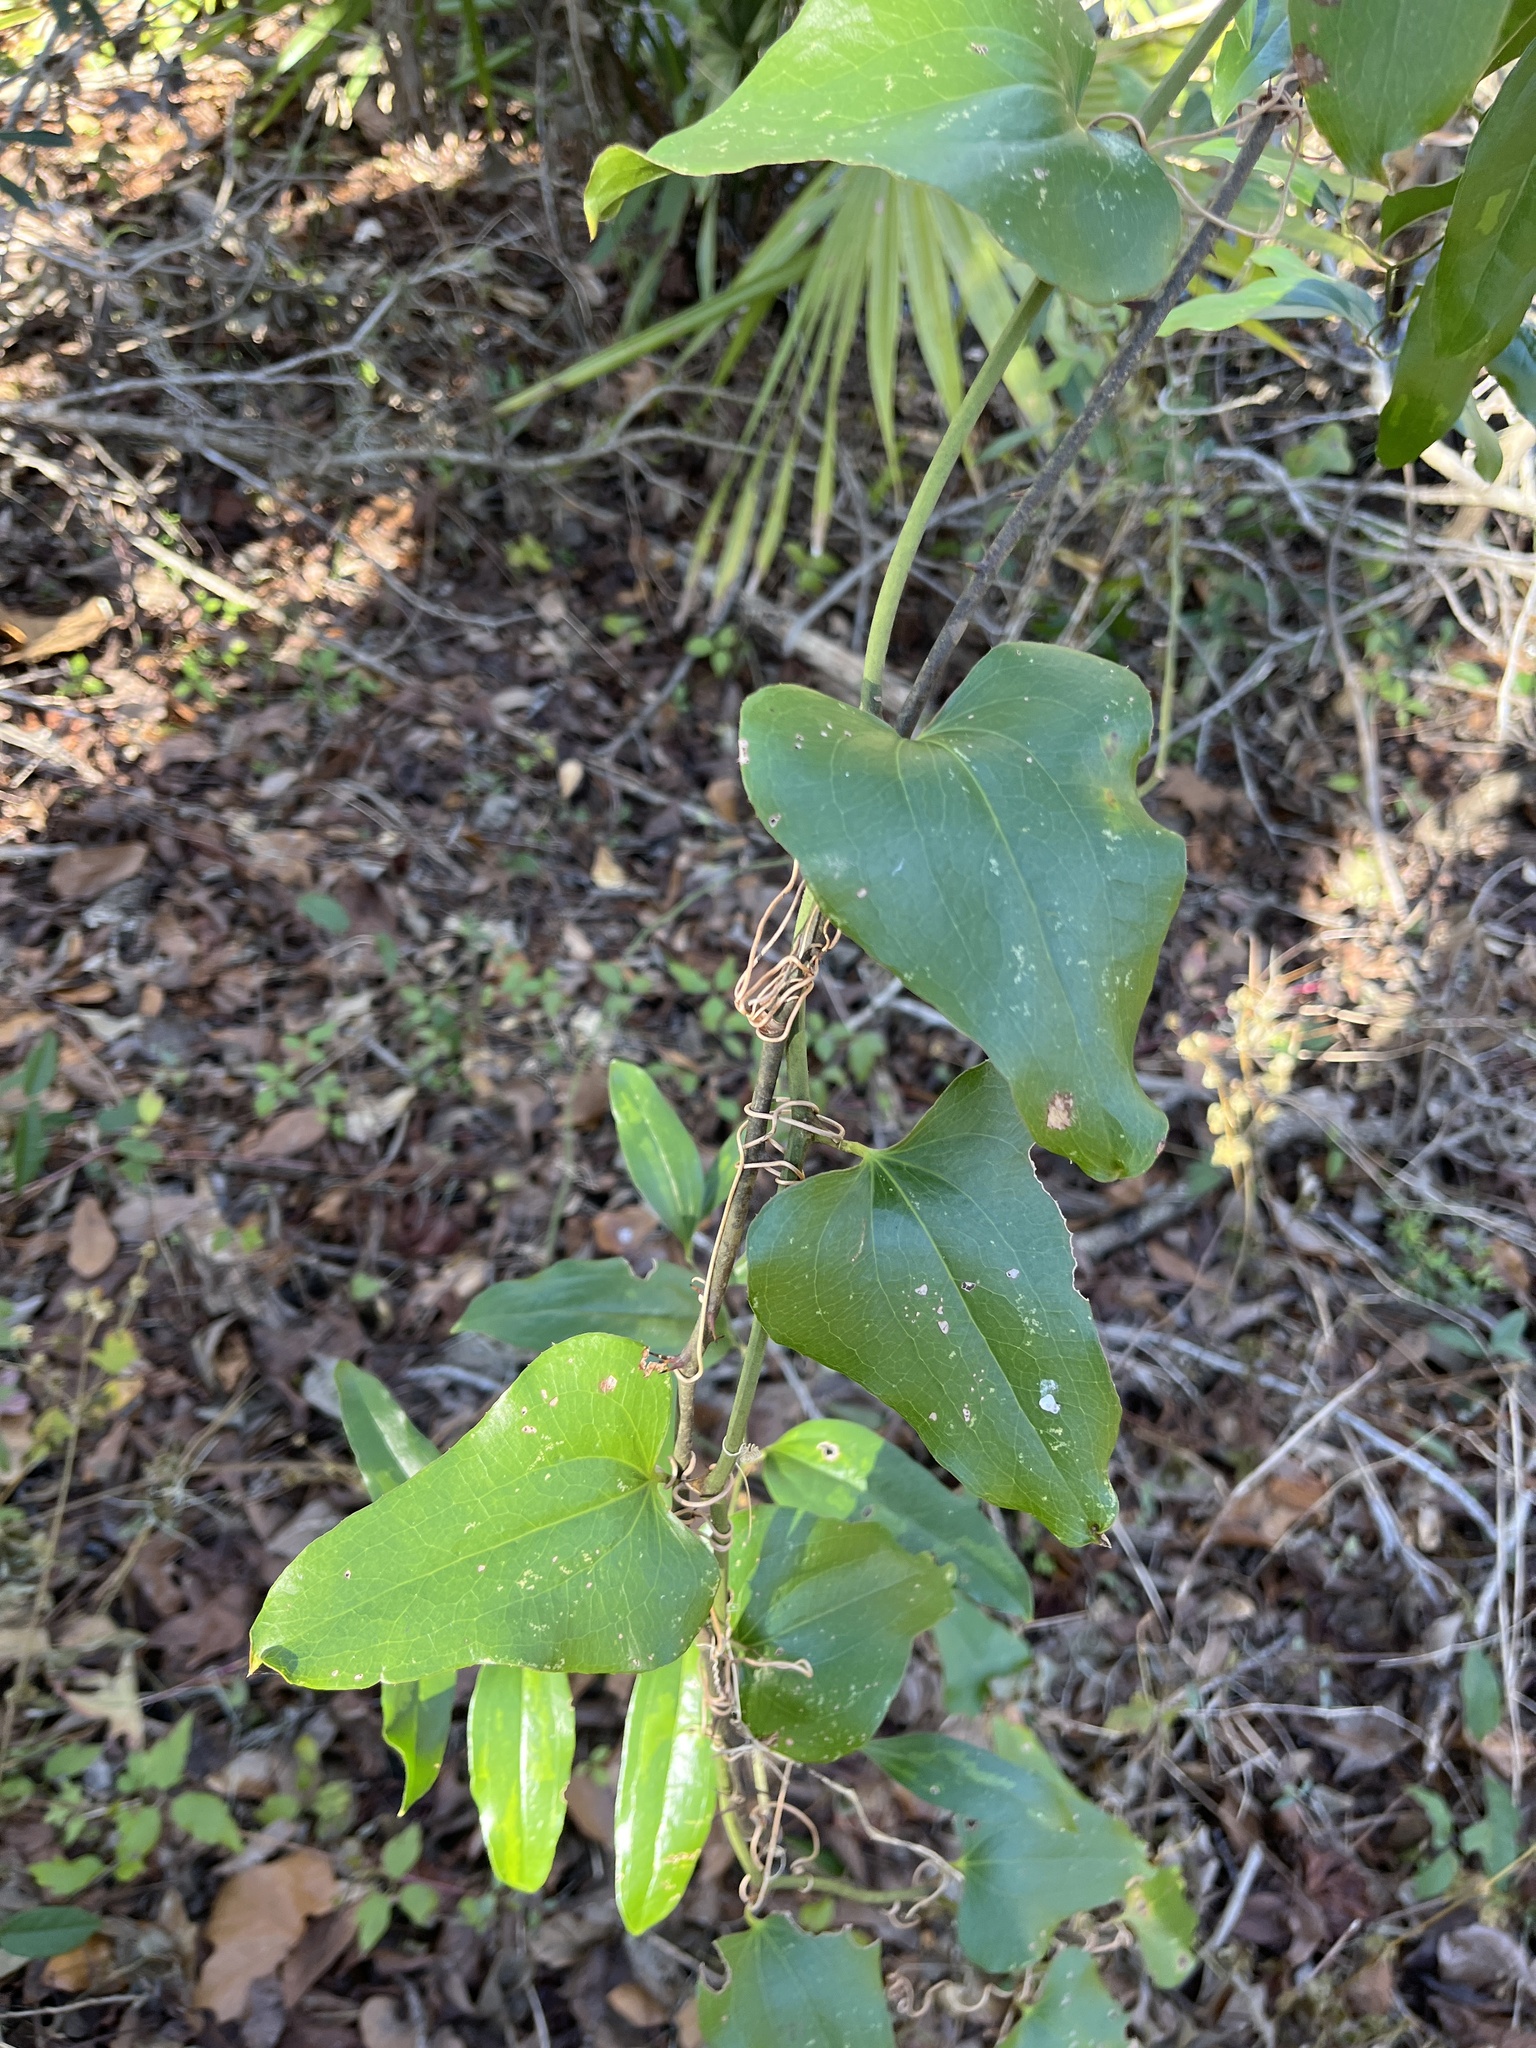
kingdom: Plantae
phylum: Tracheophyta
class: Liliopsida
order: Liliales
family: Smilacaceae
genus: Smilax
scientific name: Smilax bona-nox
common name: Catbrier
